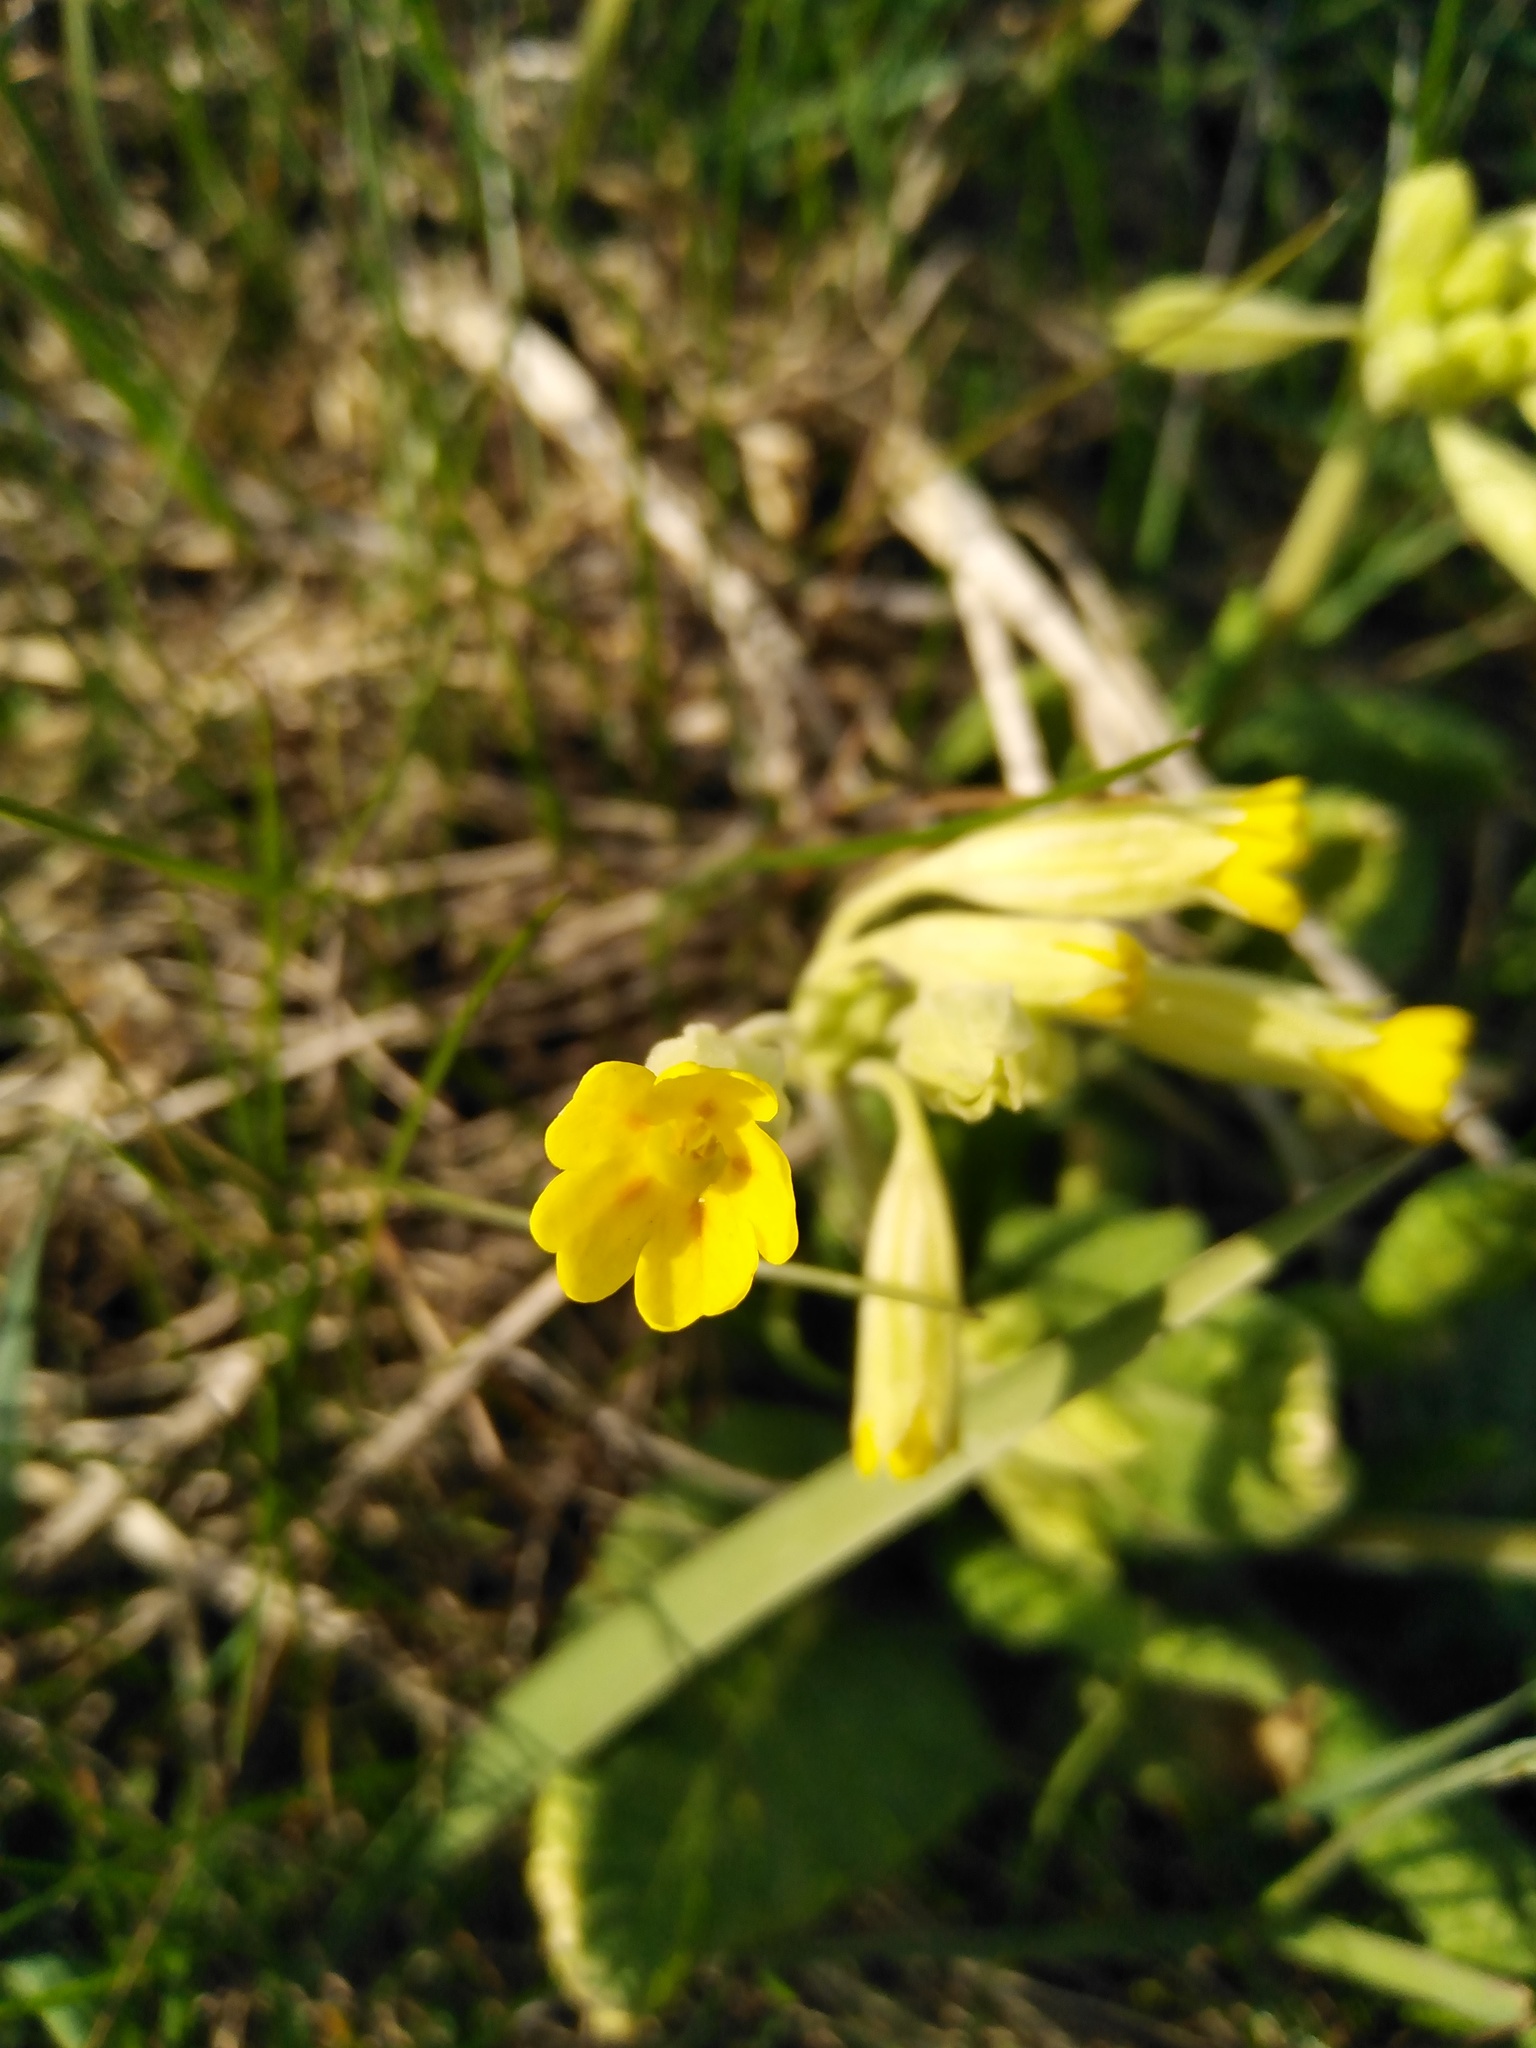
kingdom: Plantae
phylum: Tracheophyta
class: Magnoliopsida
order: Ericales
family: Primulaceae
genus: Primula
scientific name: Primula veris
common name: Cowslip
